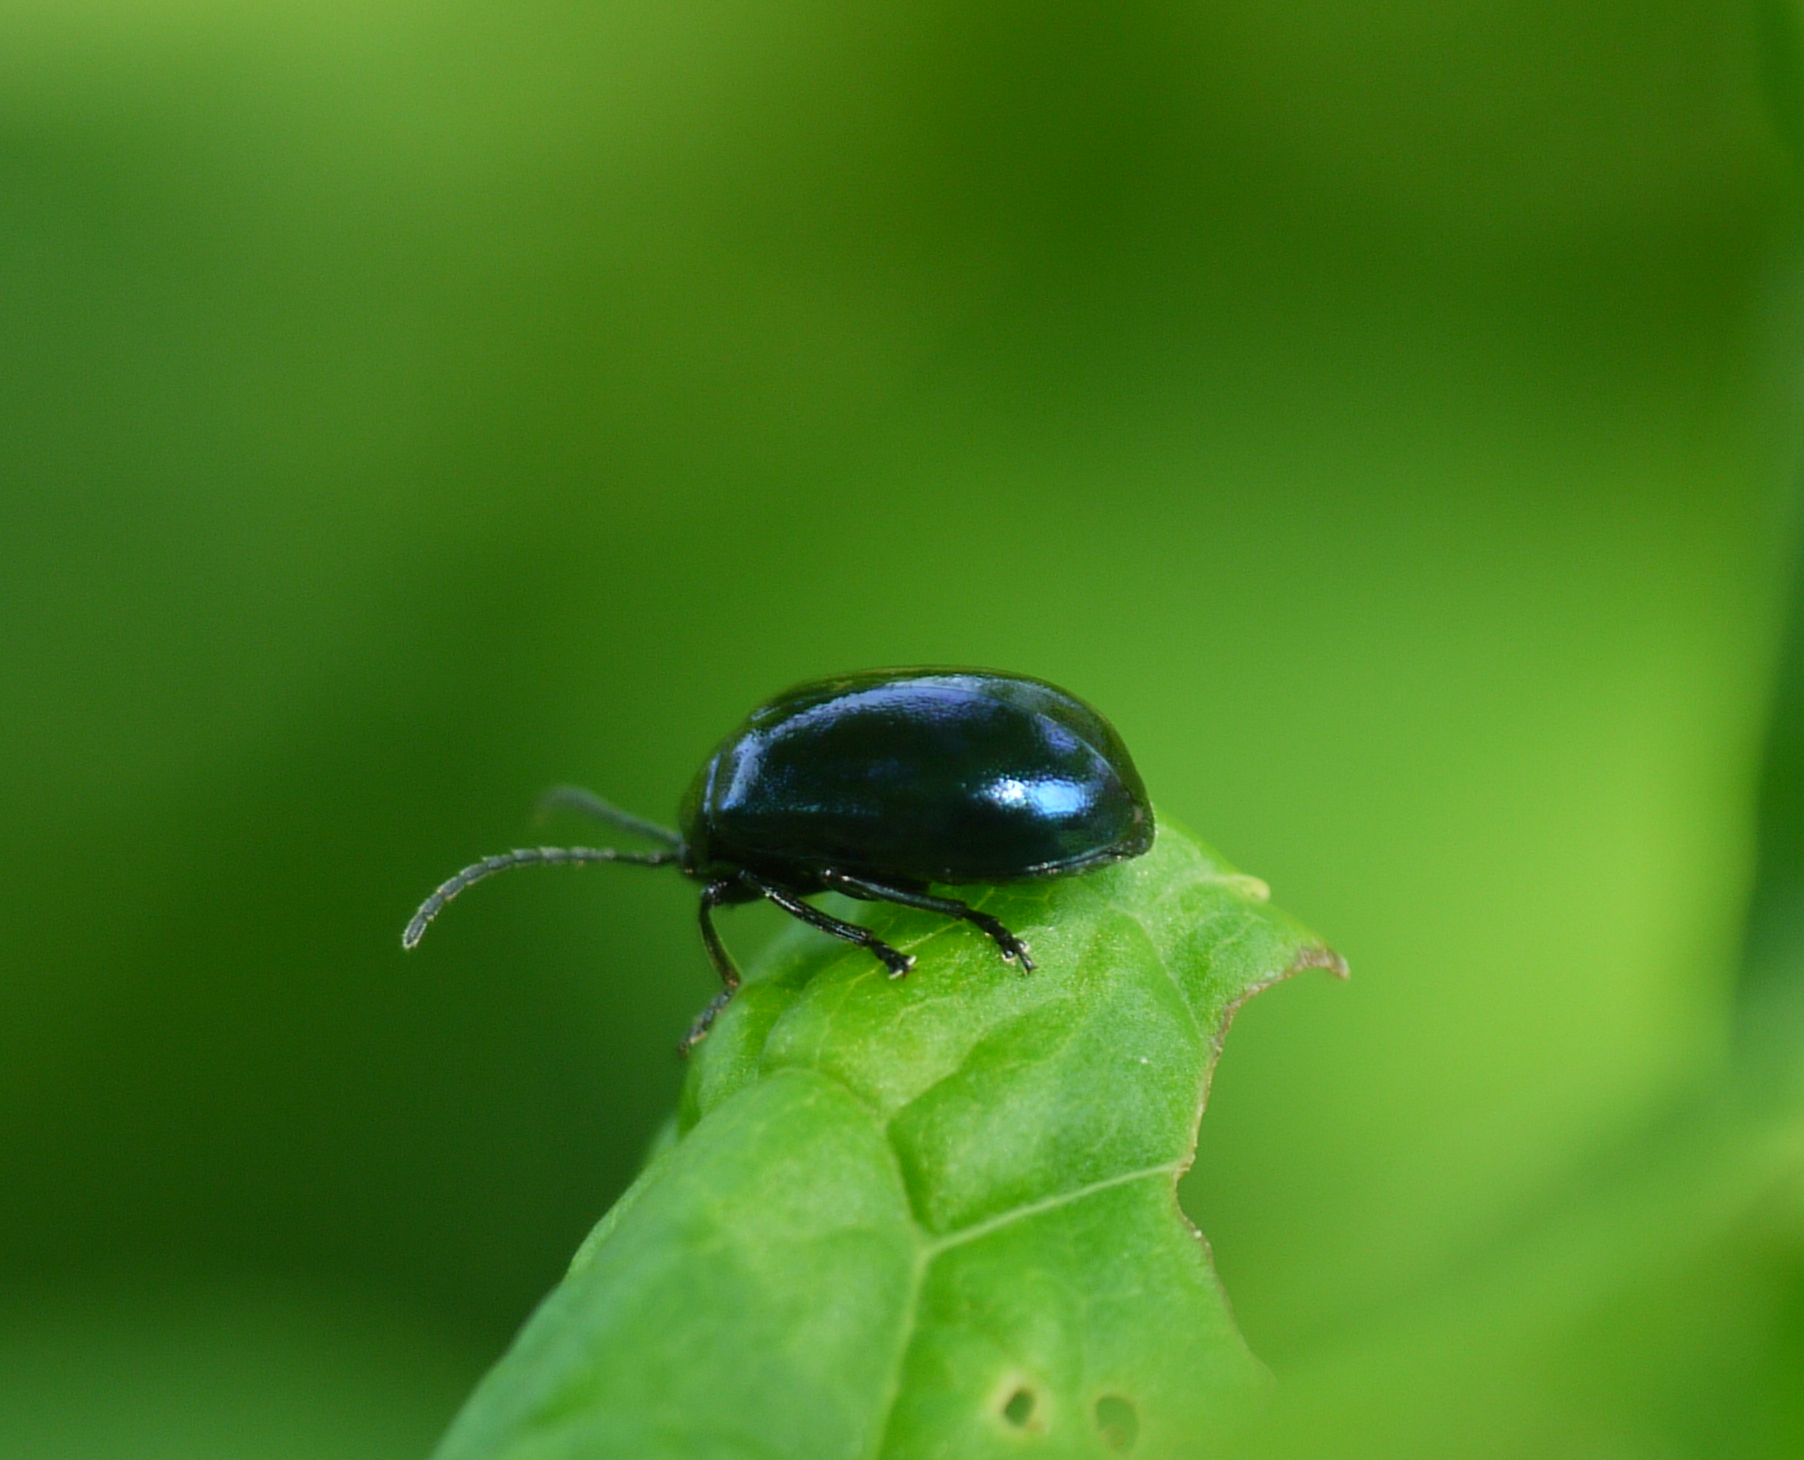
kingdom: Animalia
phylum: Arthropoda
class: Insecta
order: Coleoptera
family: Chrysomelidae
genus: Agelastica
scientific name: Agelastica alni
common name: Alder leaf beetle
